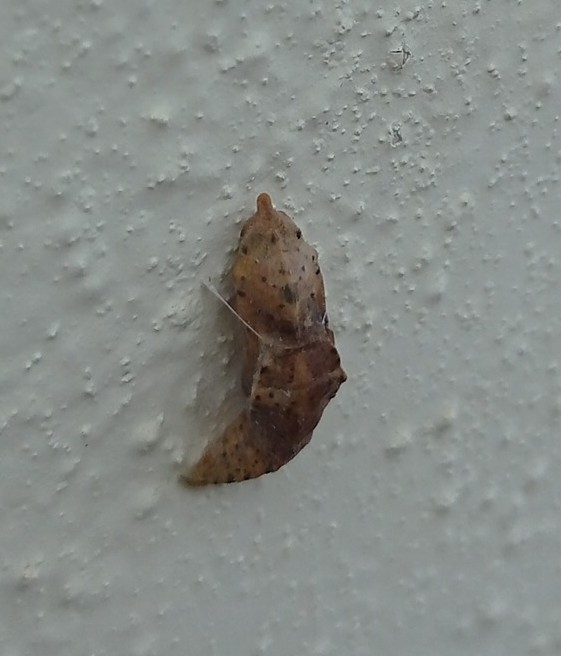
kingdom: Animalia
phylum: Arthropoda
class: Insecta
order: Lepidoptera
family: Pieridae
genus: Pieris
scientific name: Pieris brassicae
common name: Large white
